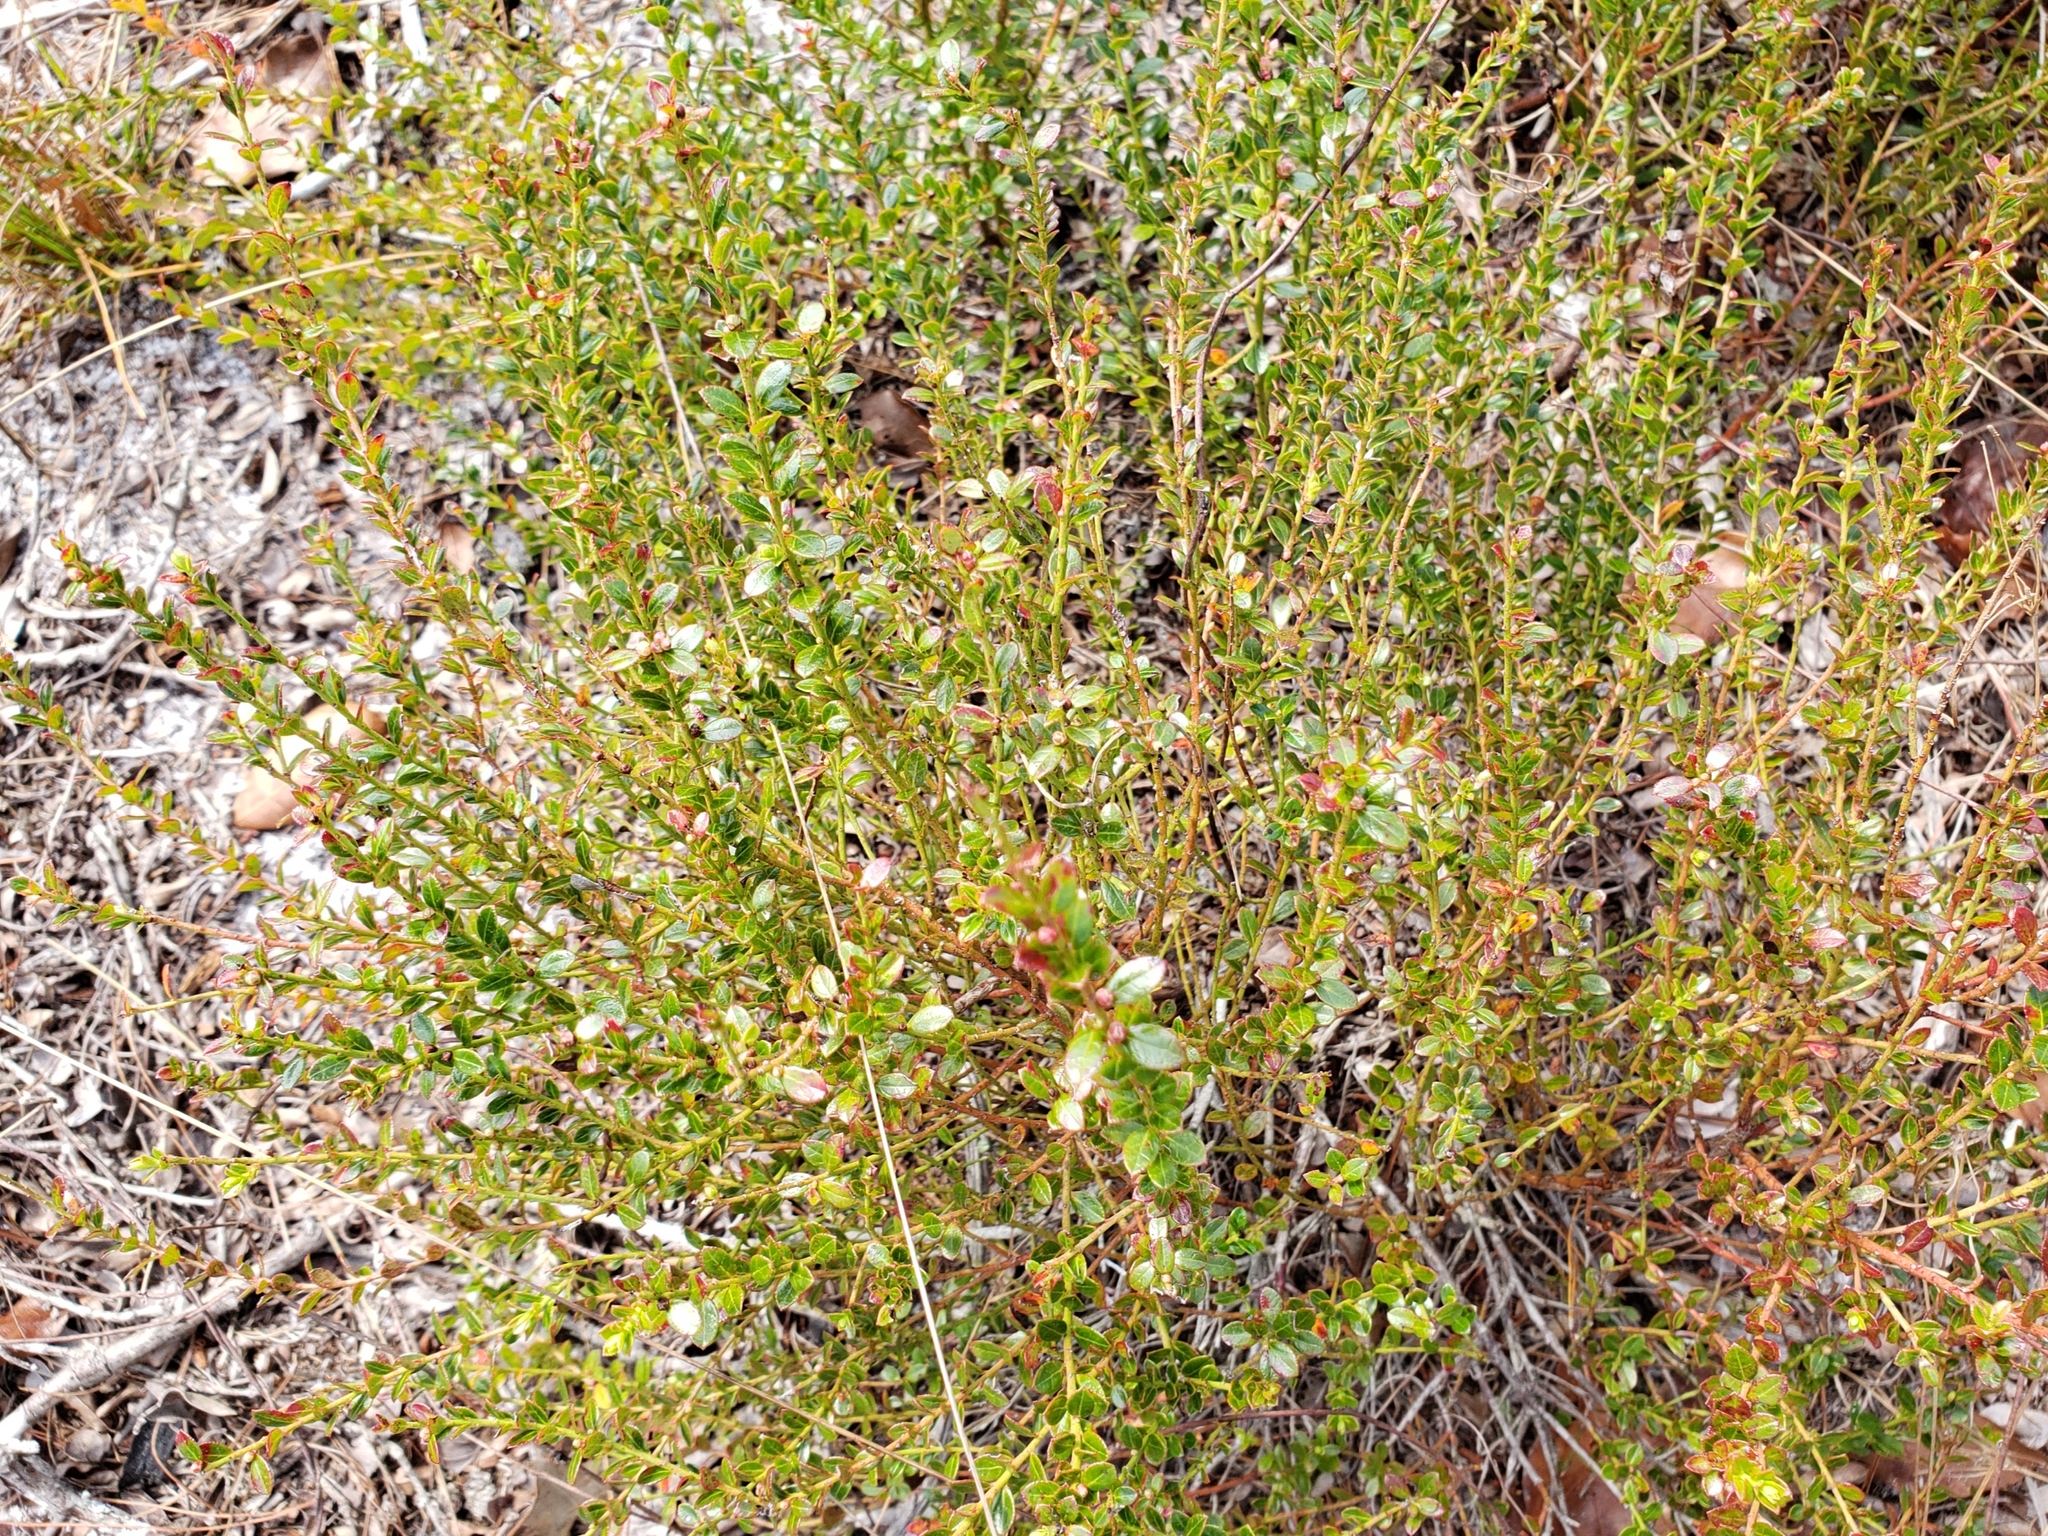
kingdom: Plantae
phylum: Tracheophyta
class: Magnoliopsida
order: Ericales
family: Ericaceae
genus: Vaccinium
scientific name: Vaccinium myrsinites
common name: Evergreen blueberry
